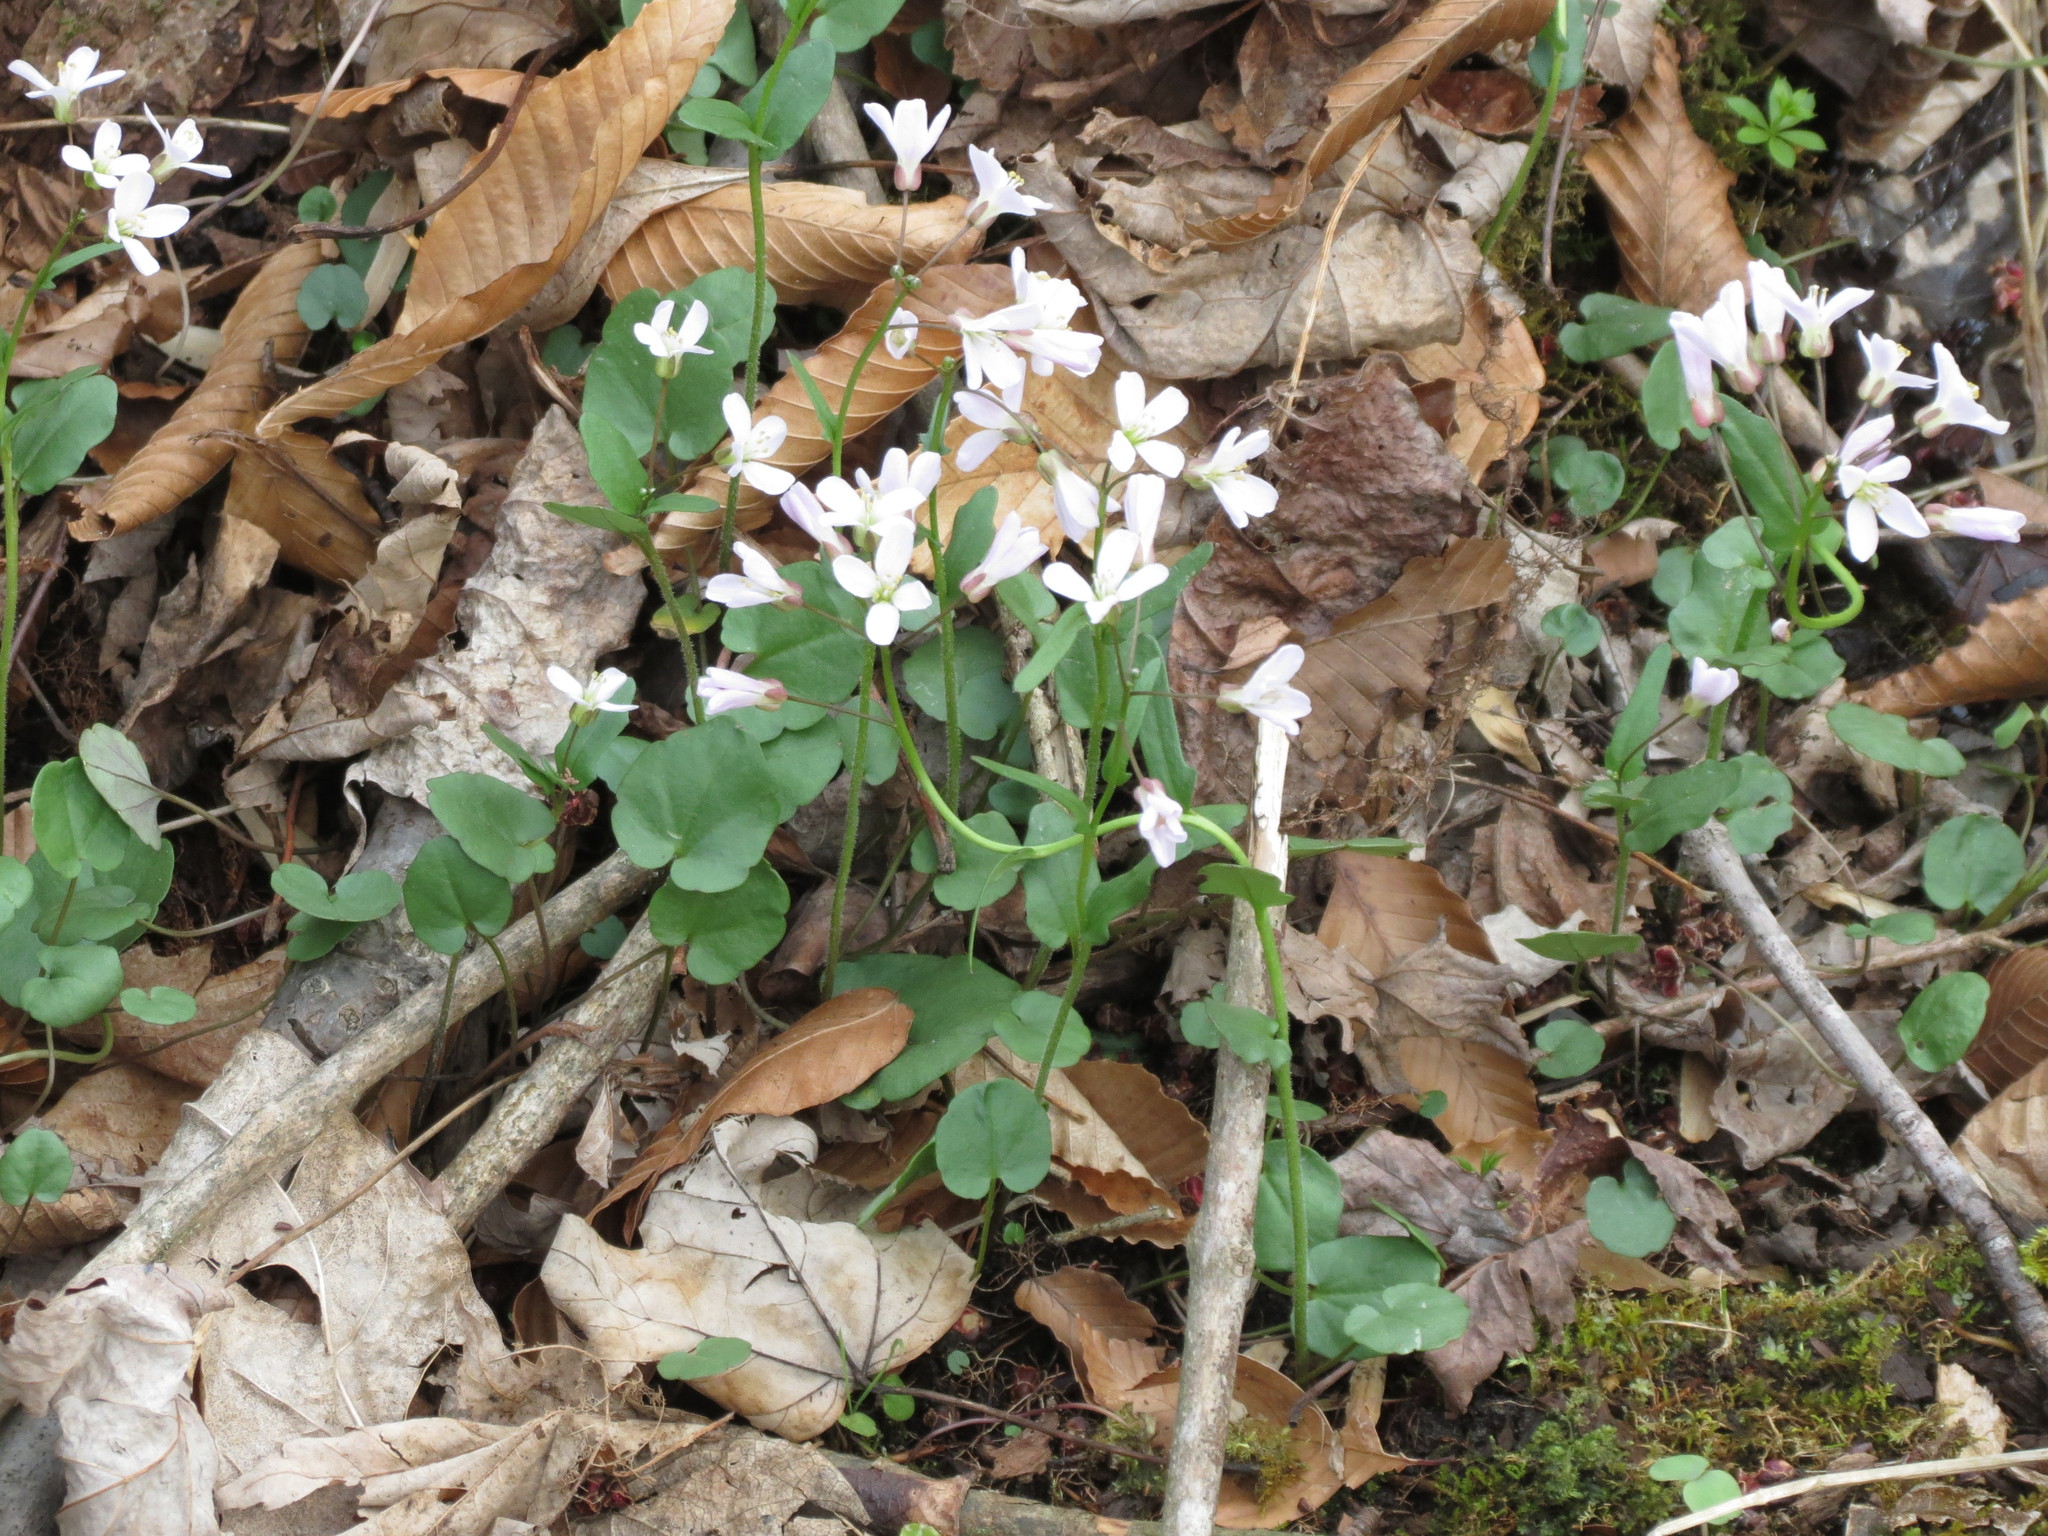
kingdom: Plantae
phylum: Tracheophyta
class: Magnoliopsida
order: Brassicales
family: Brassicaceae
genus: Cardamine
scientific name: Cardamine douglassii
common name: Purple cress
